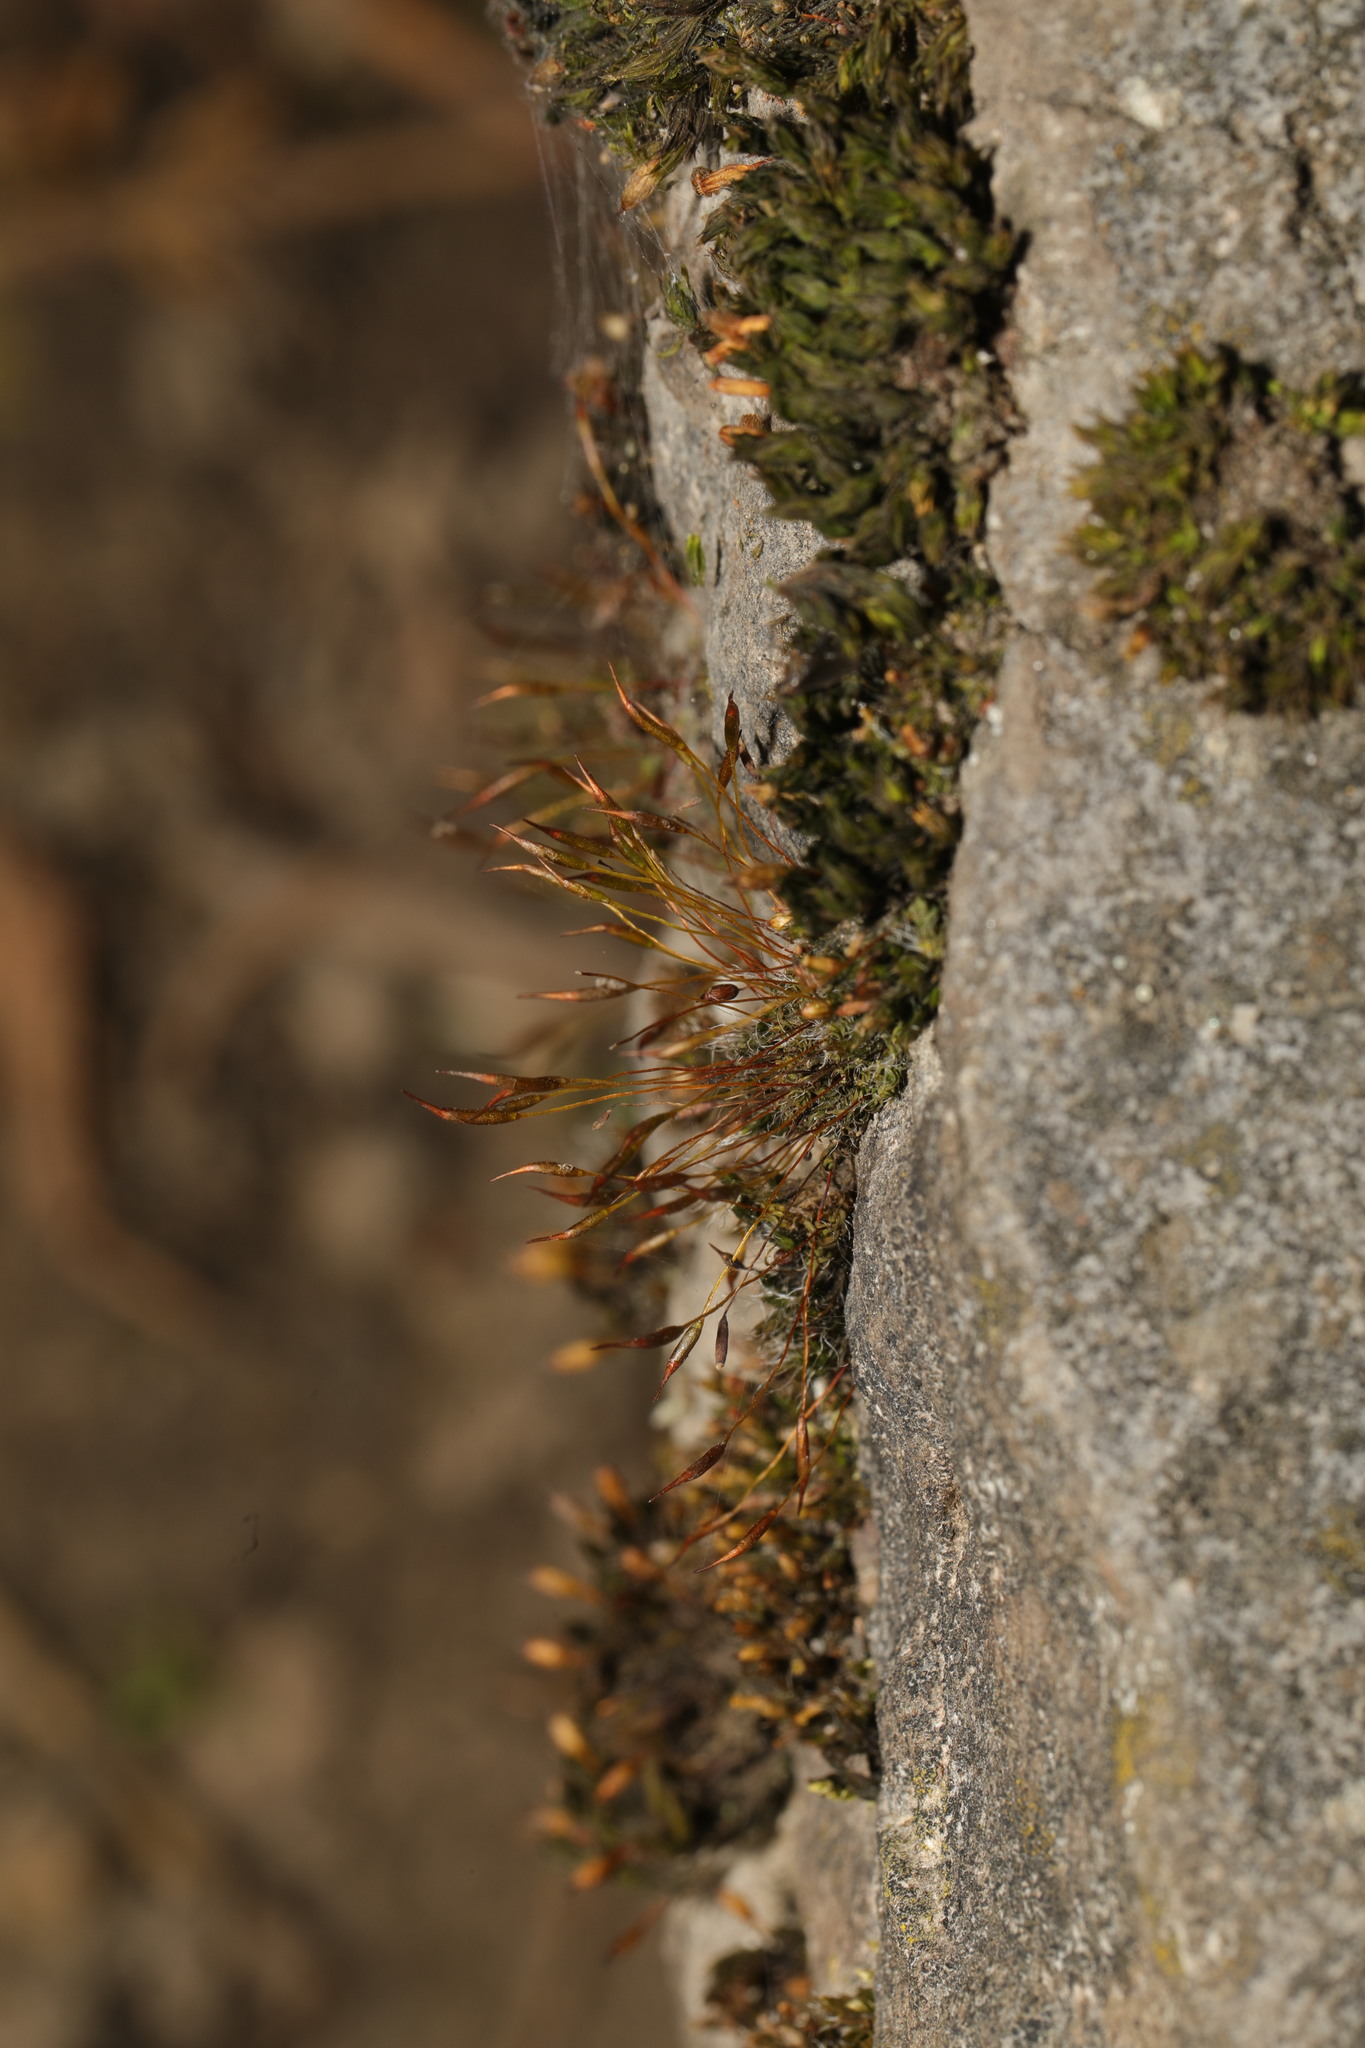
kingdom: Plantae
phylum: Bryophyta
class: Bryopsida
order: Pottiales
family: Pottiaceae
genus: Tortula
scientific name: Tortula muralis
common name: Wall screw-moss
